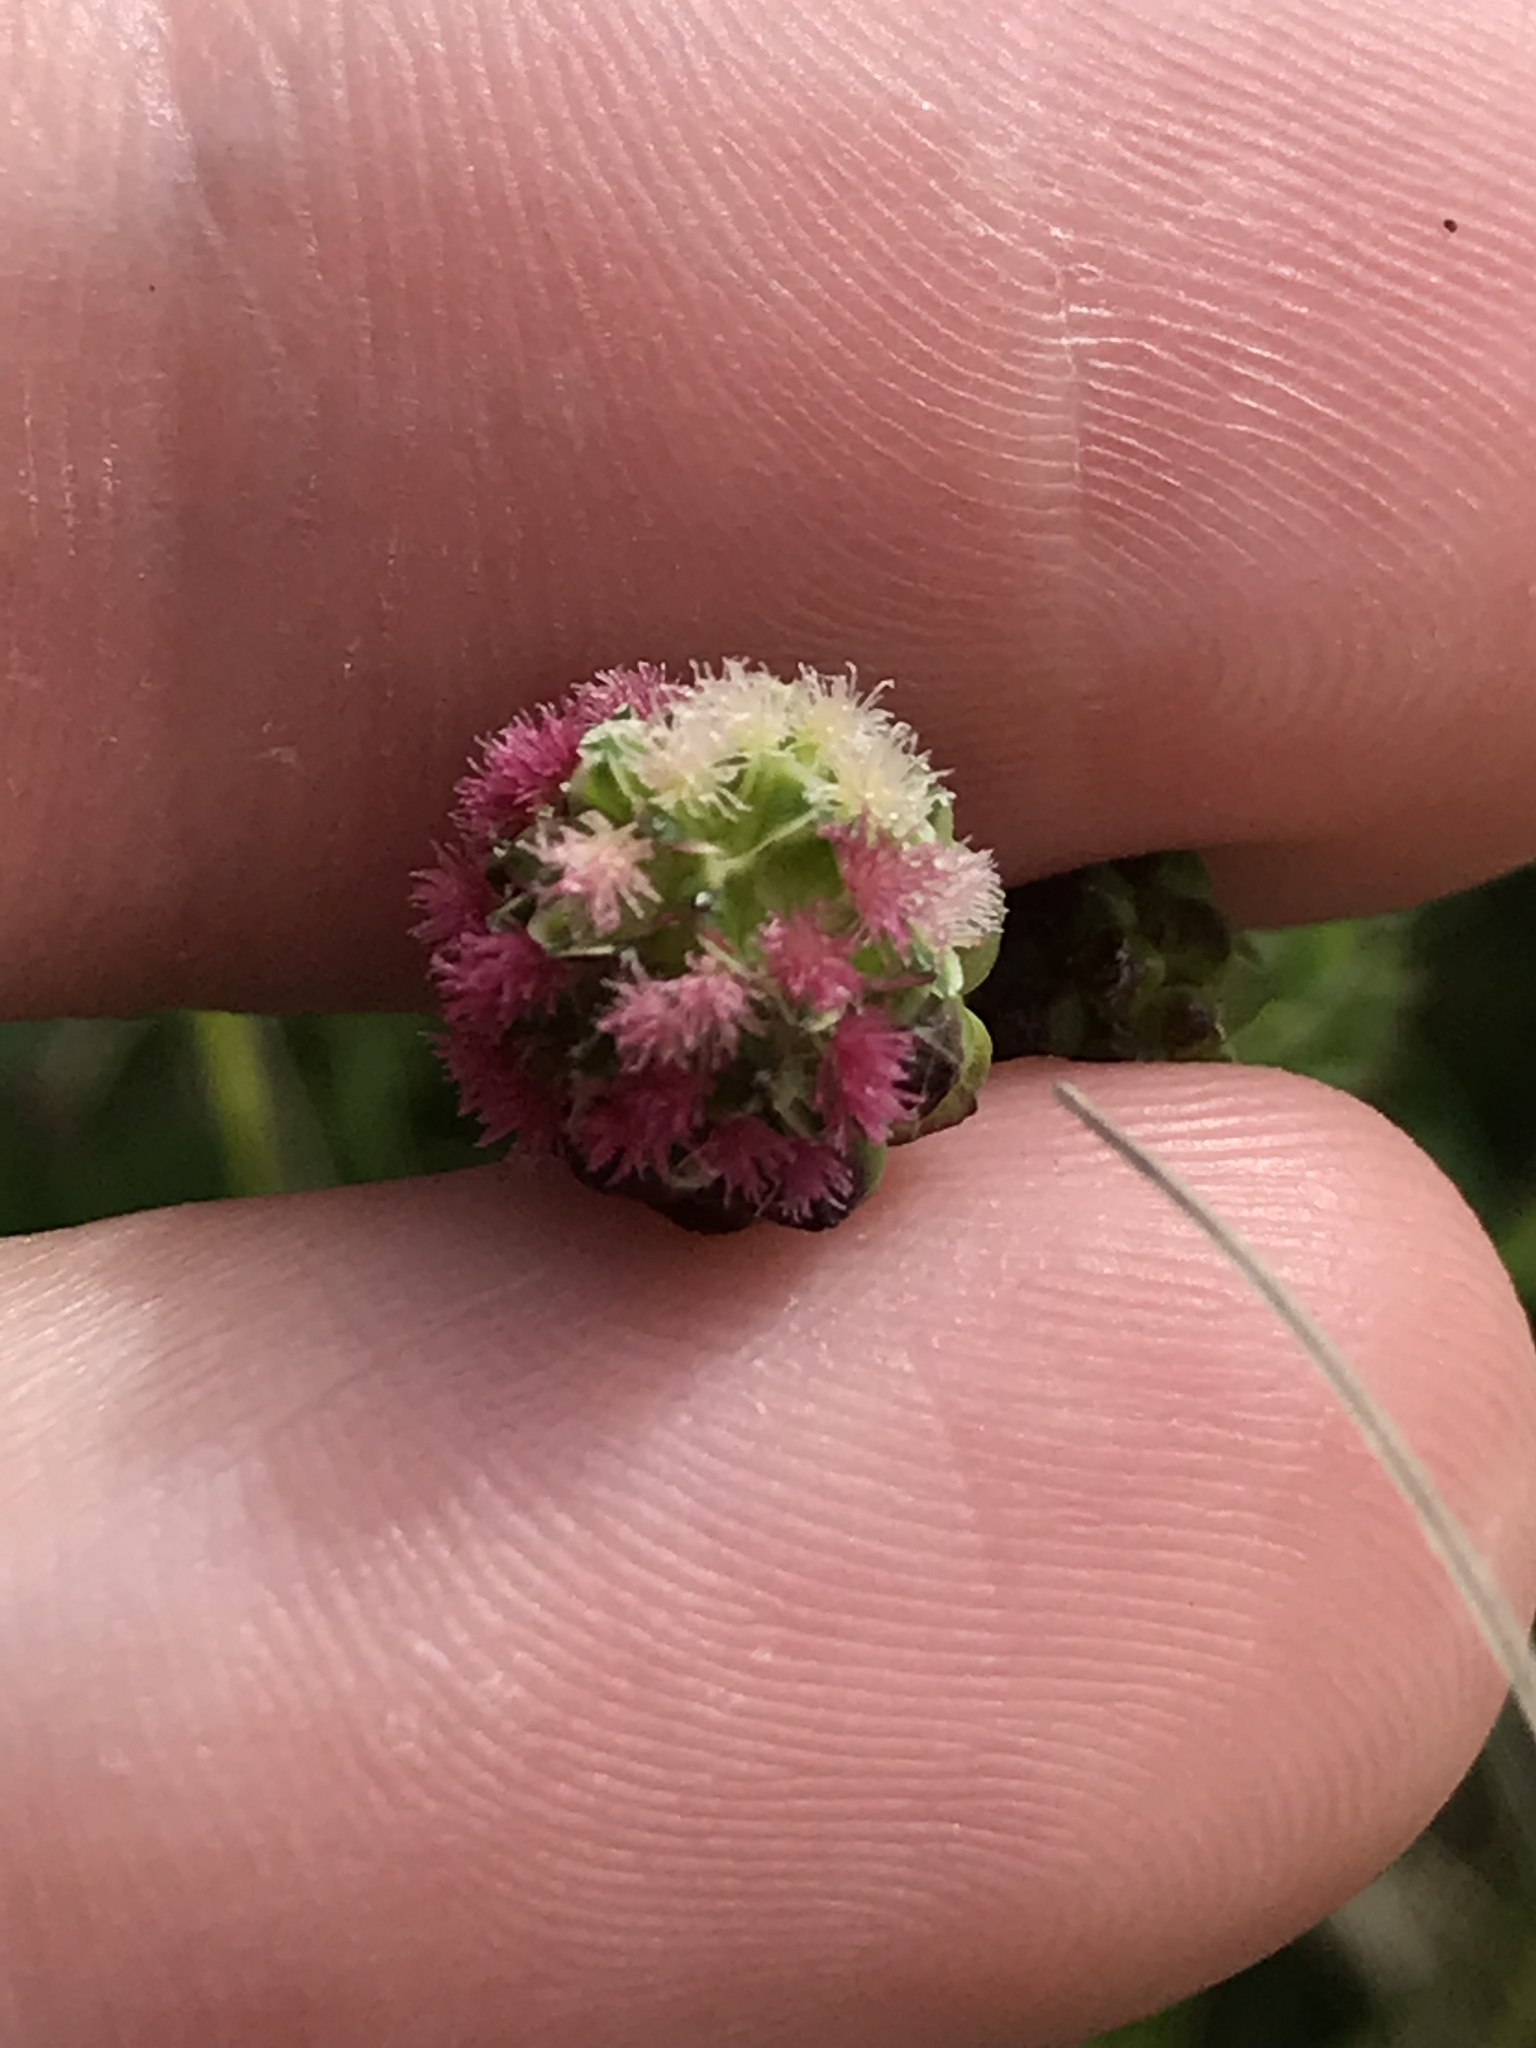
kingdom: Plantae
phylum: Tracheophyta
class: Magnoliopsida
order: Rosales
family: Rosaceae
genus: Poterium
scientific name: Poterium sanguisorba
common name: Salad burnet
